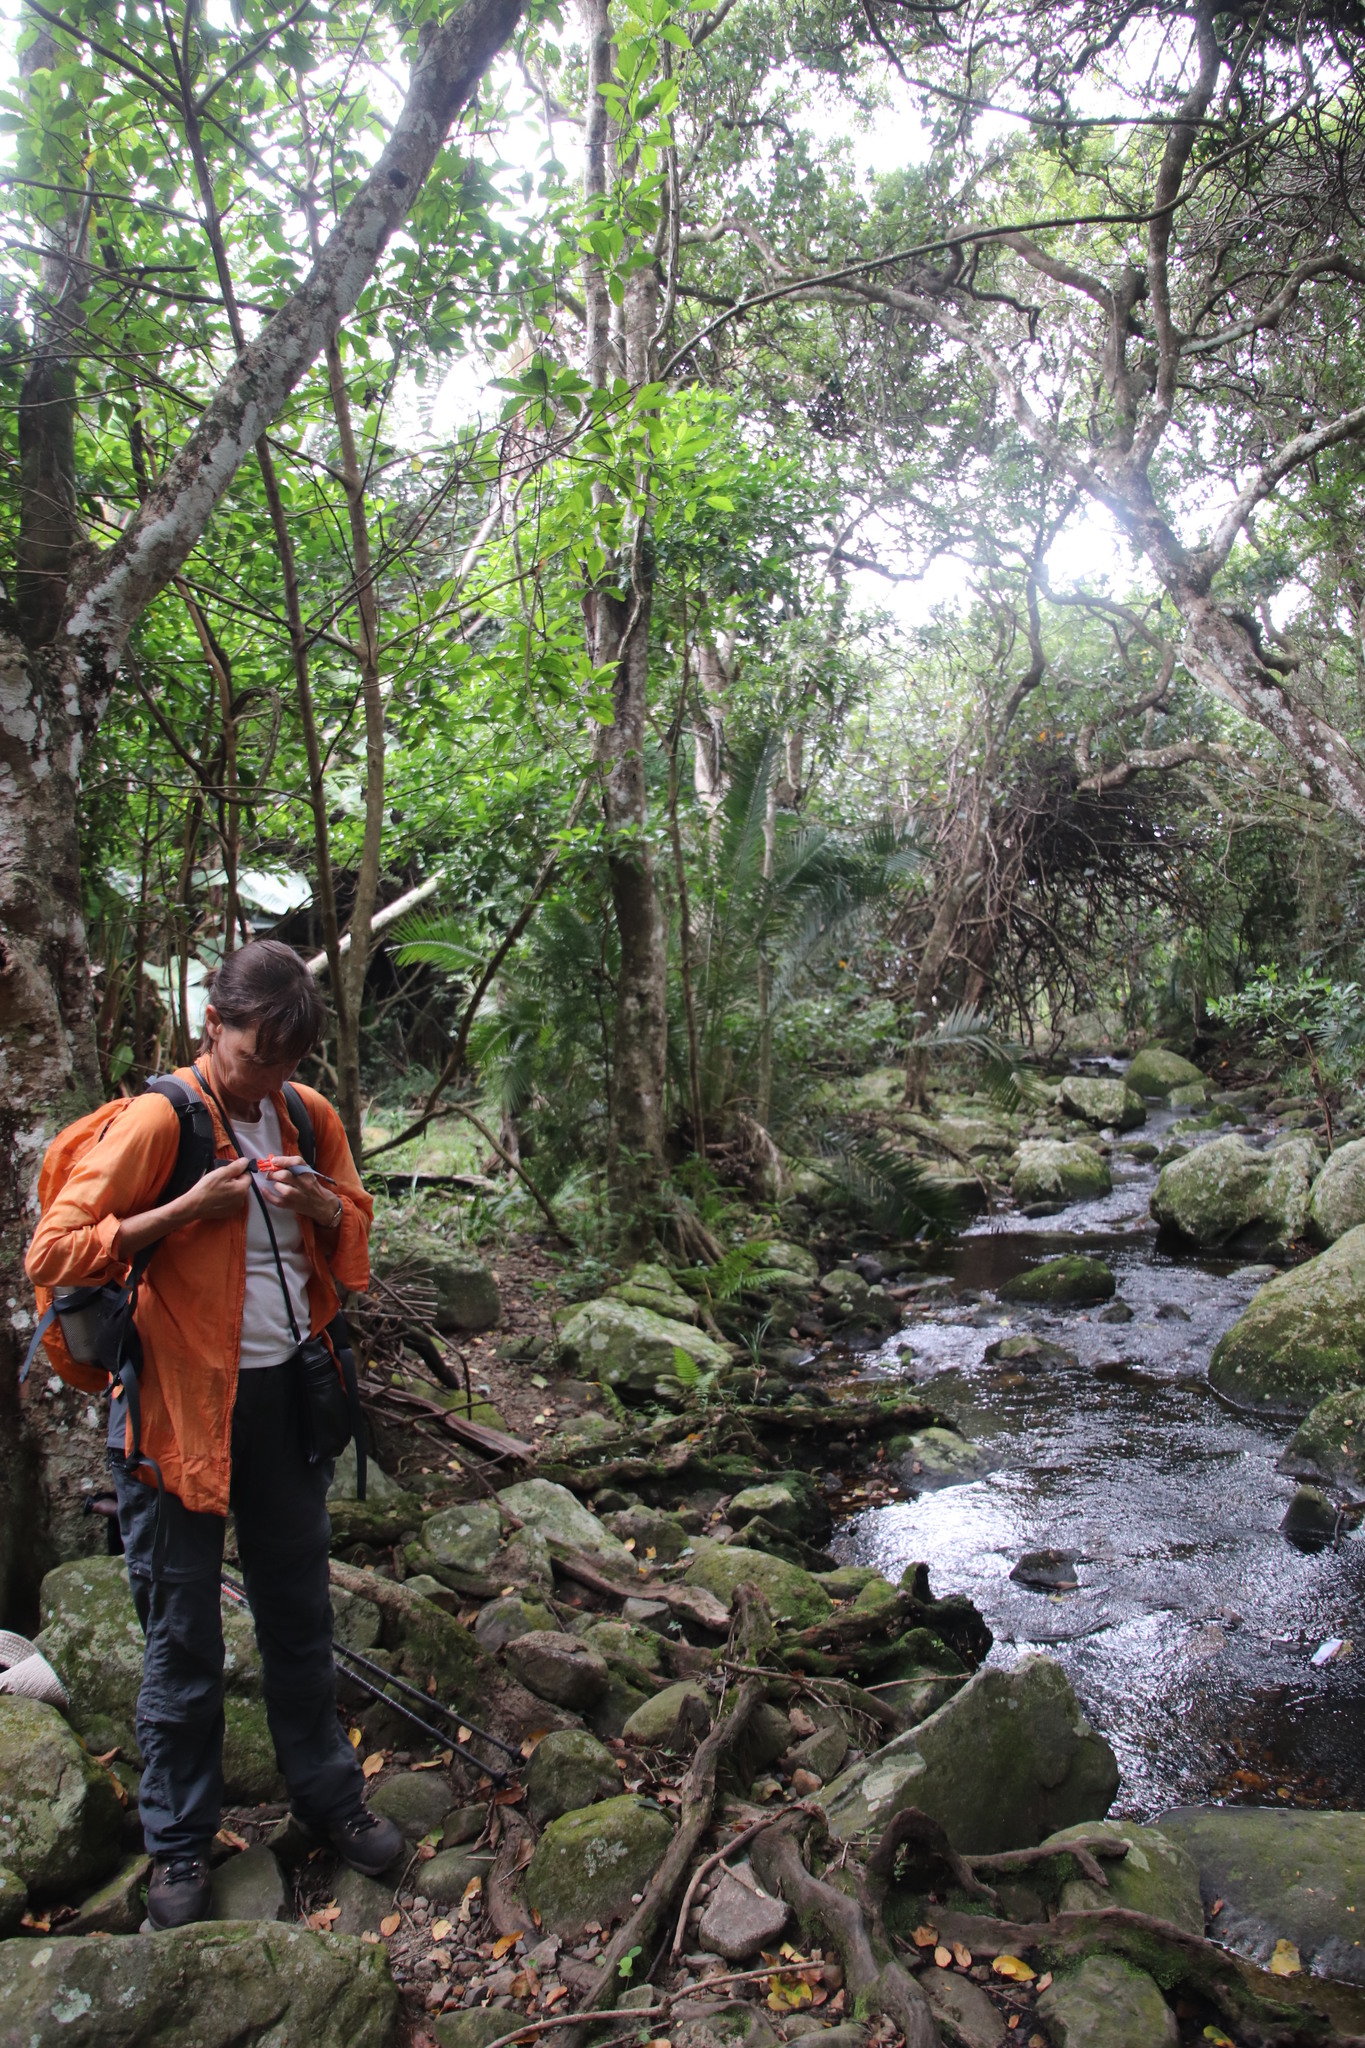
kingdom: Plantae
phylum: Tracheophyta
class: Liliopsida
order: Arecales
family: Arecaceae
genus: Phoenix
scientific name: Phoenix reclinata
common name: Senegal date palm
